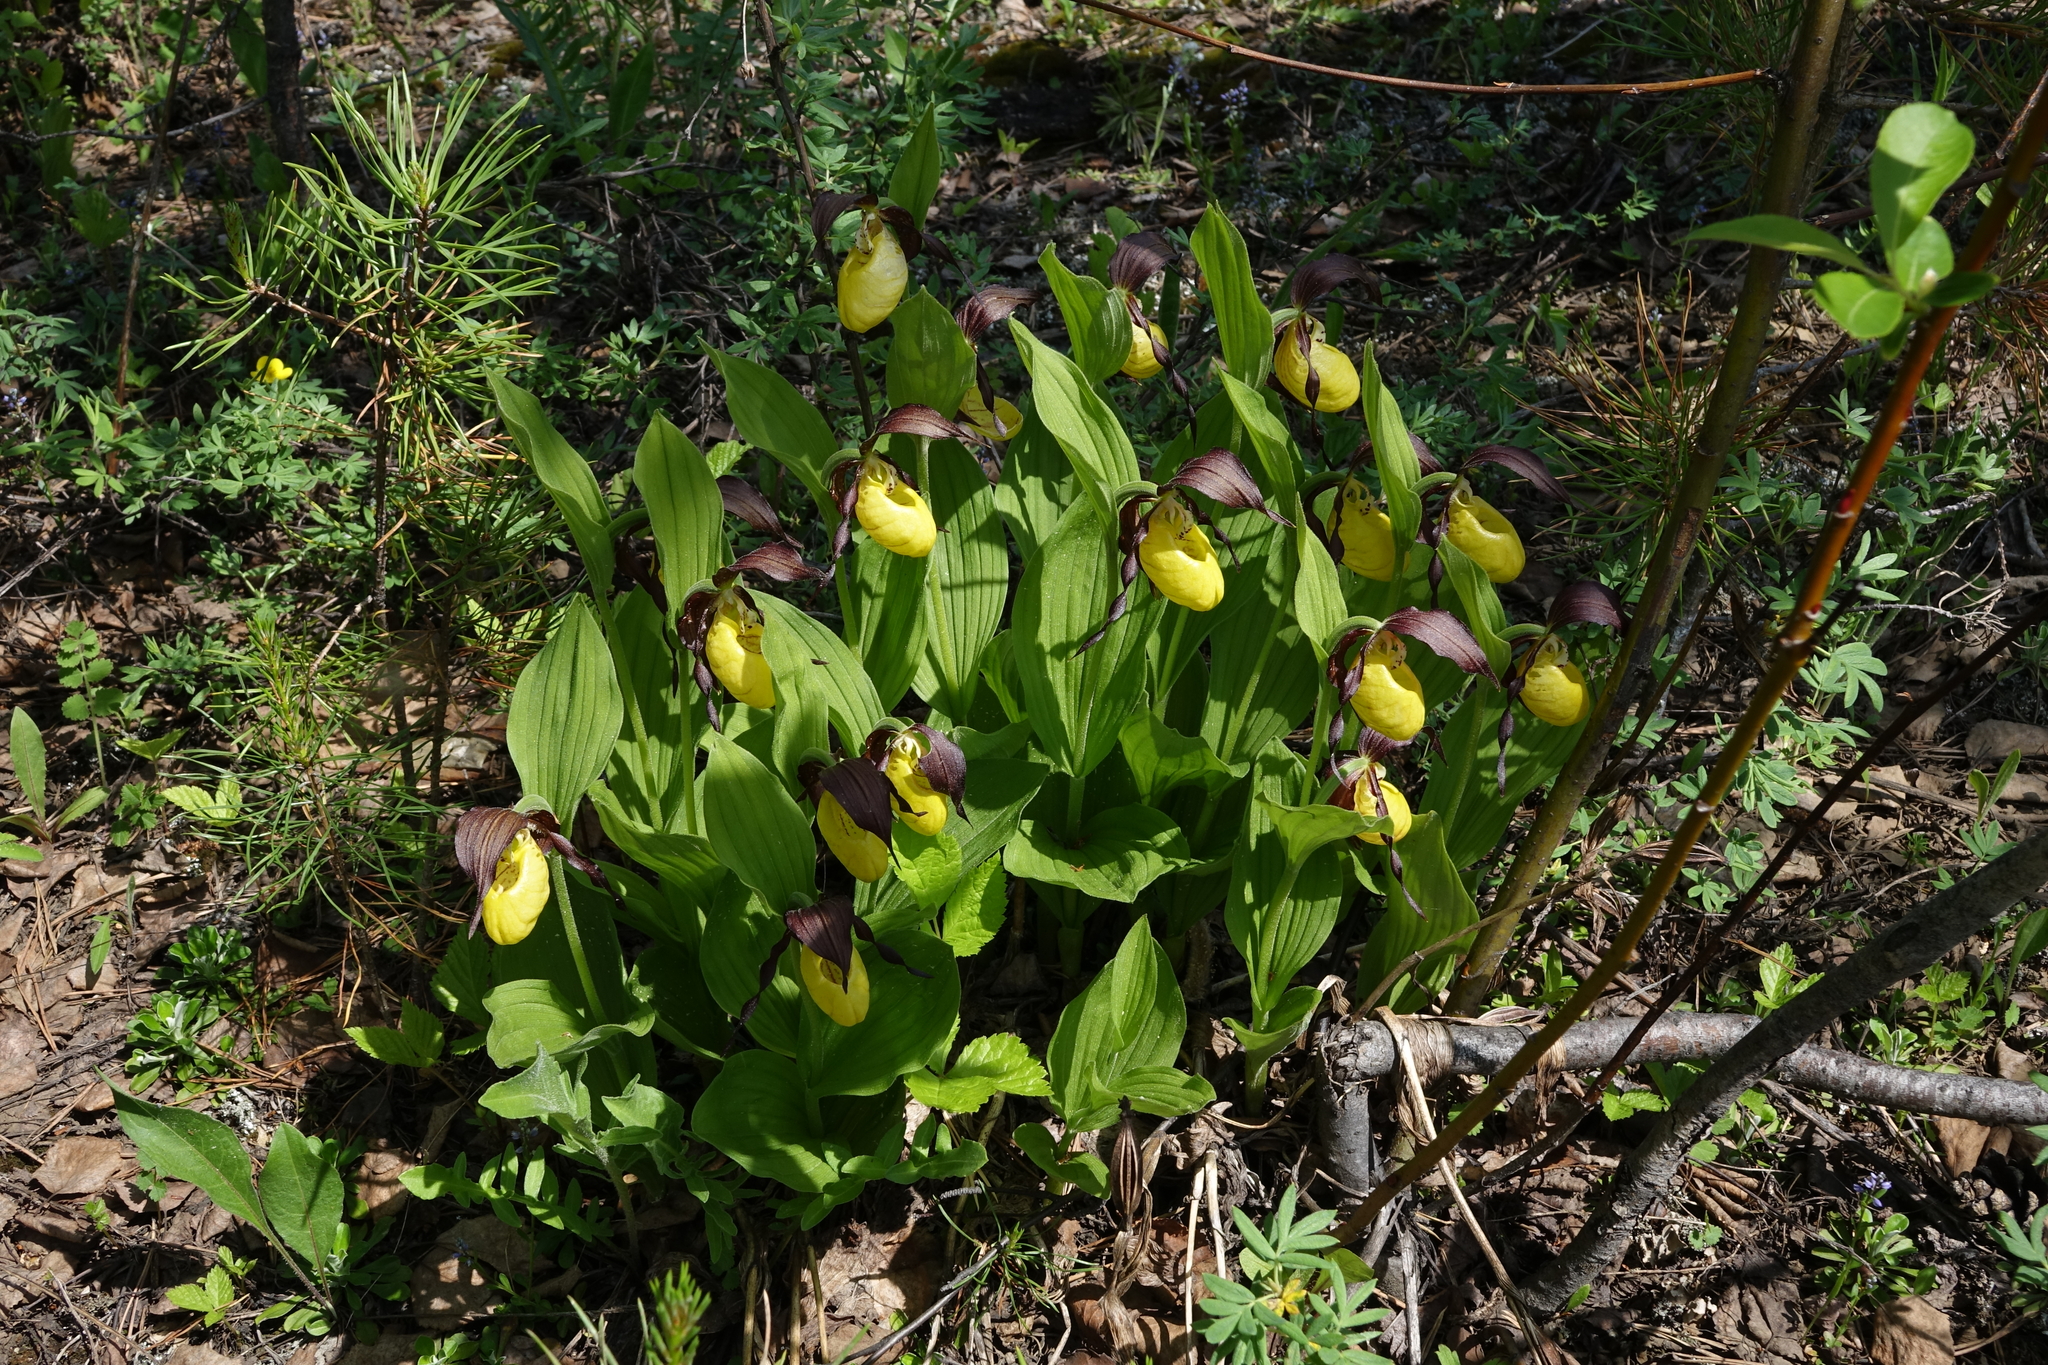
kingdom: Plantae
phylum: Tracheophyta
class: Liliopsida
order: Asparagales
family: Orchidaceae
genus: Cypripedium
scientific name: Cypripedium calceolus
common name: Lady's-slipper
